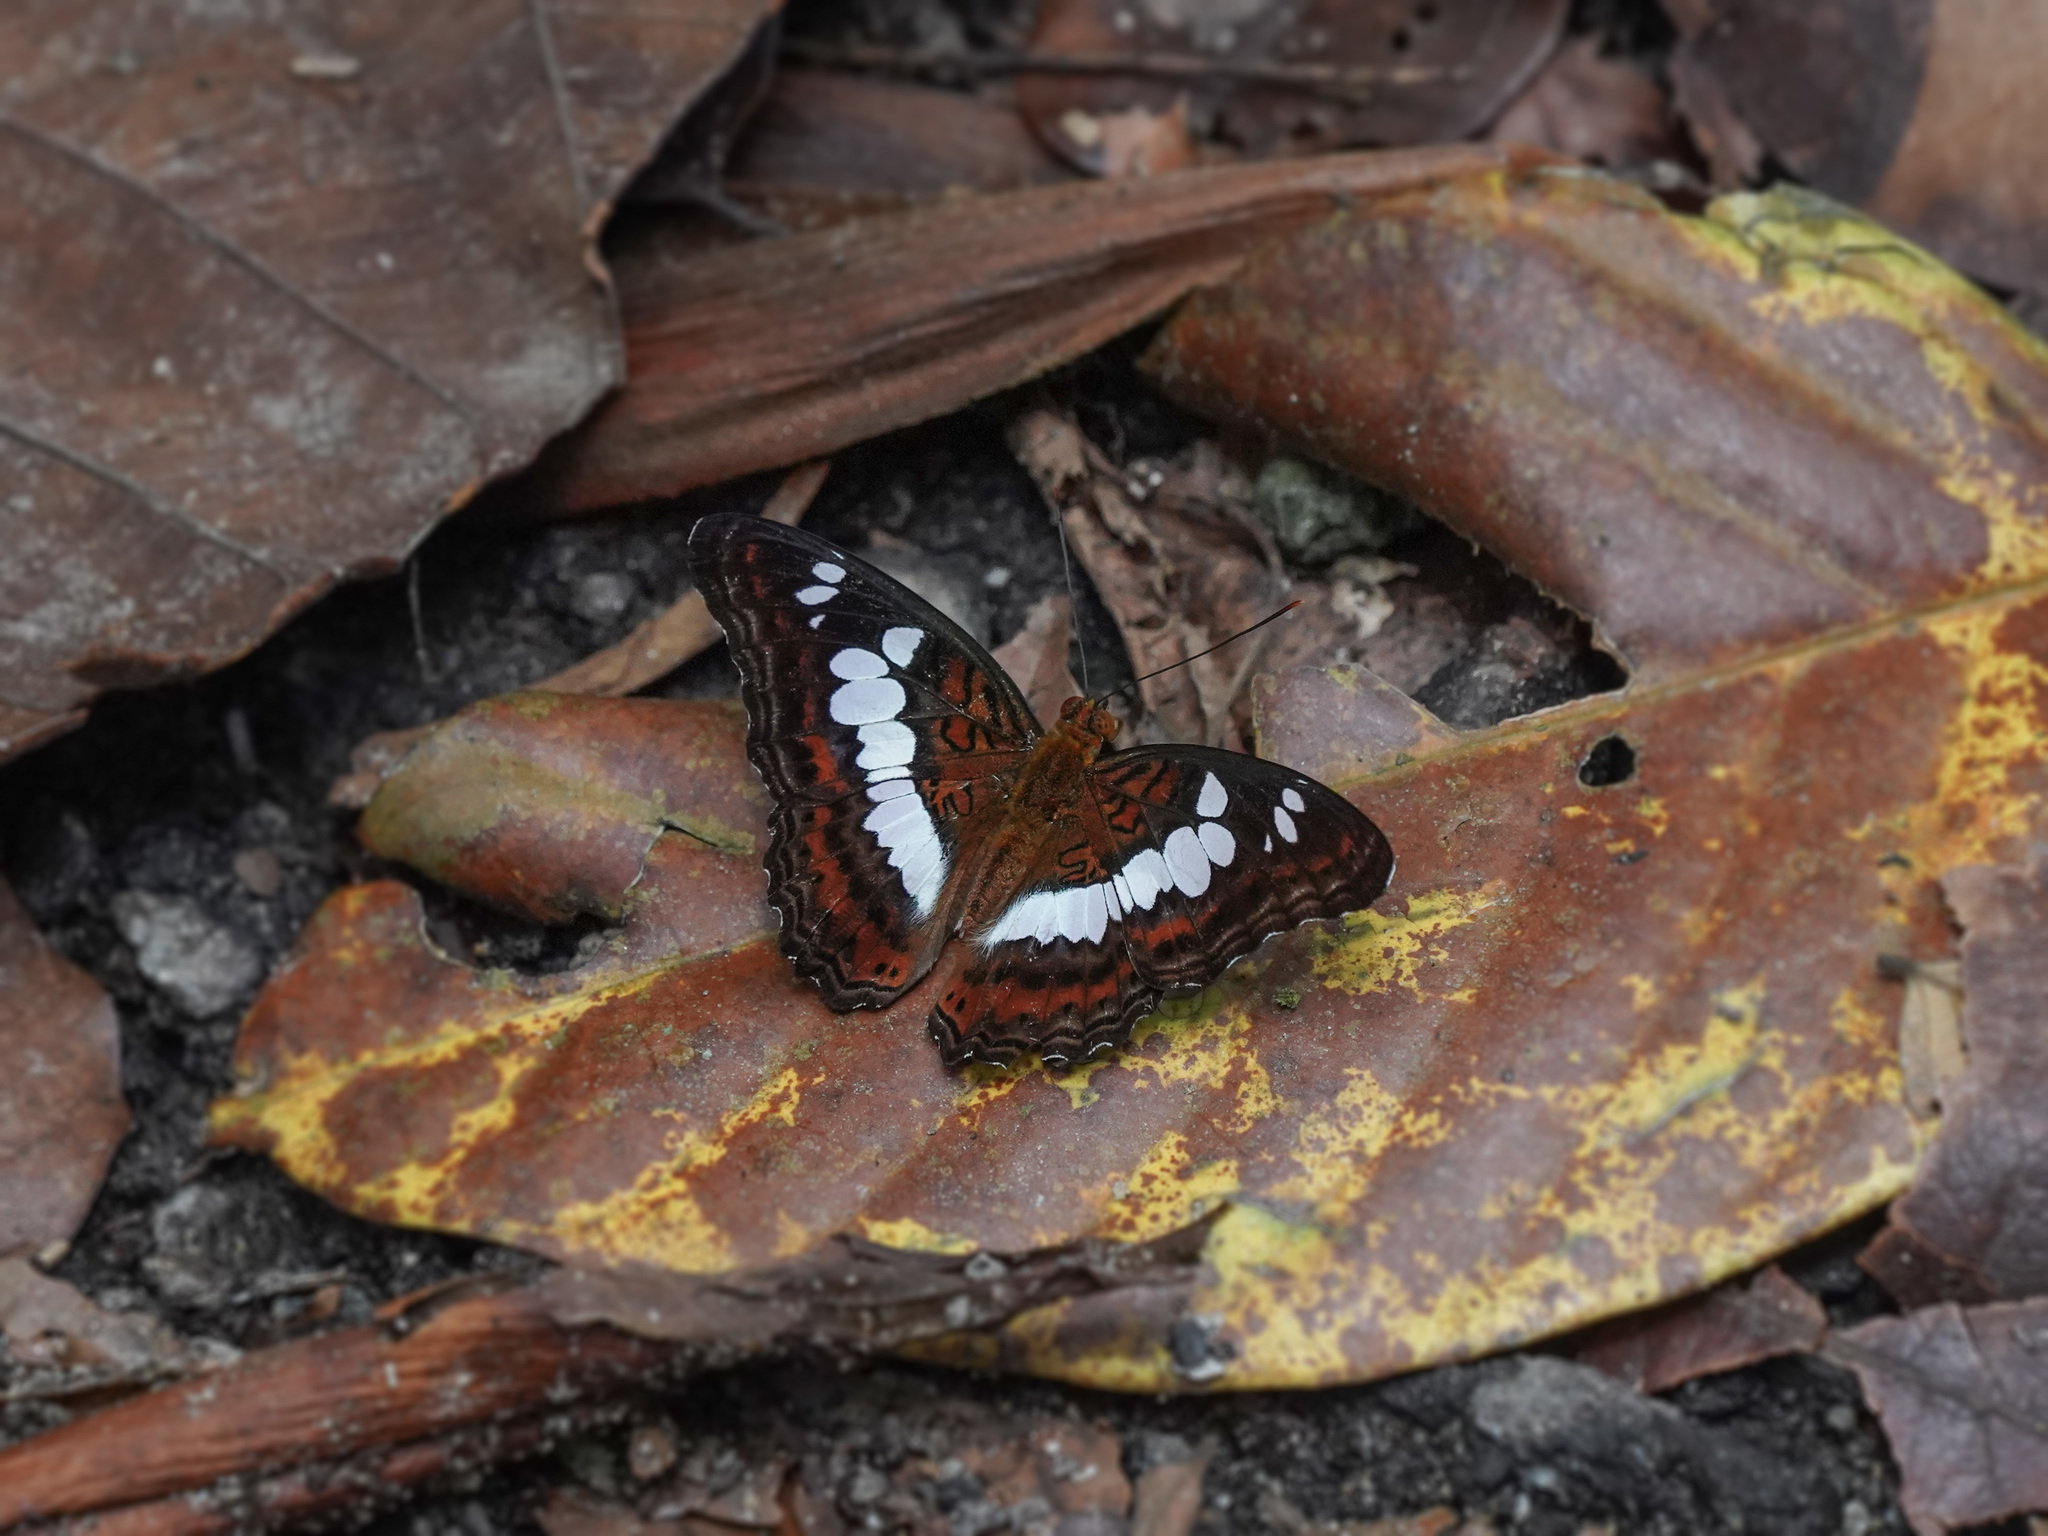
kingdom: Animalia
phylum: Arthropoda
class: Insecta
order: Lepidoptera
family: Nymphalidae
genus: Limenitis
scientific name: Limenitis Moduza procris
